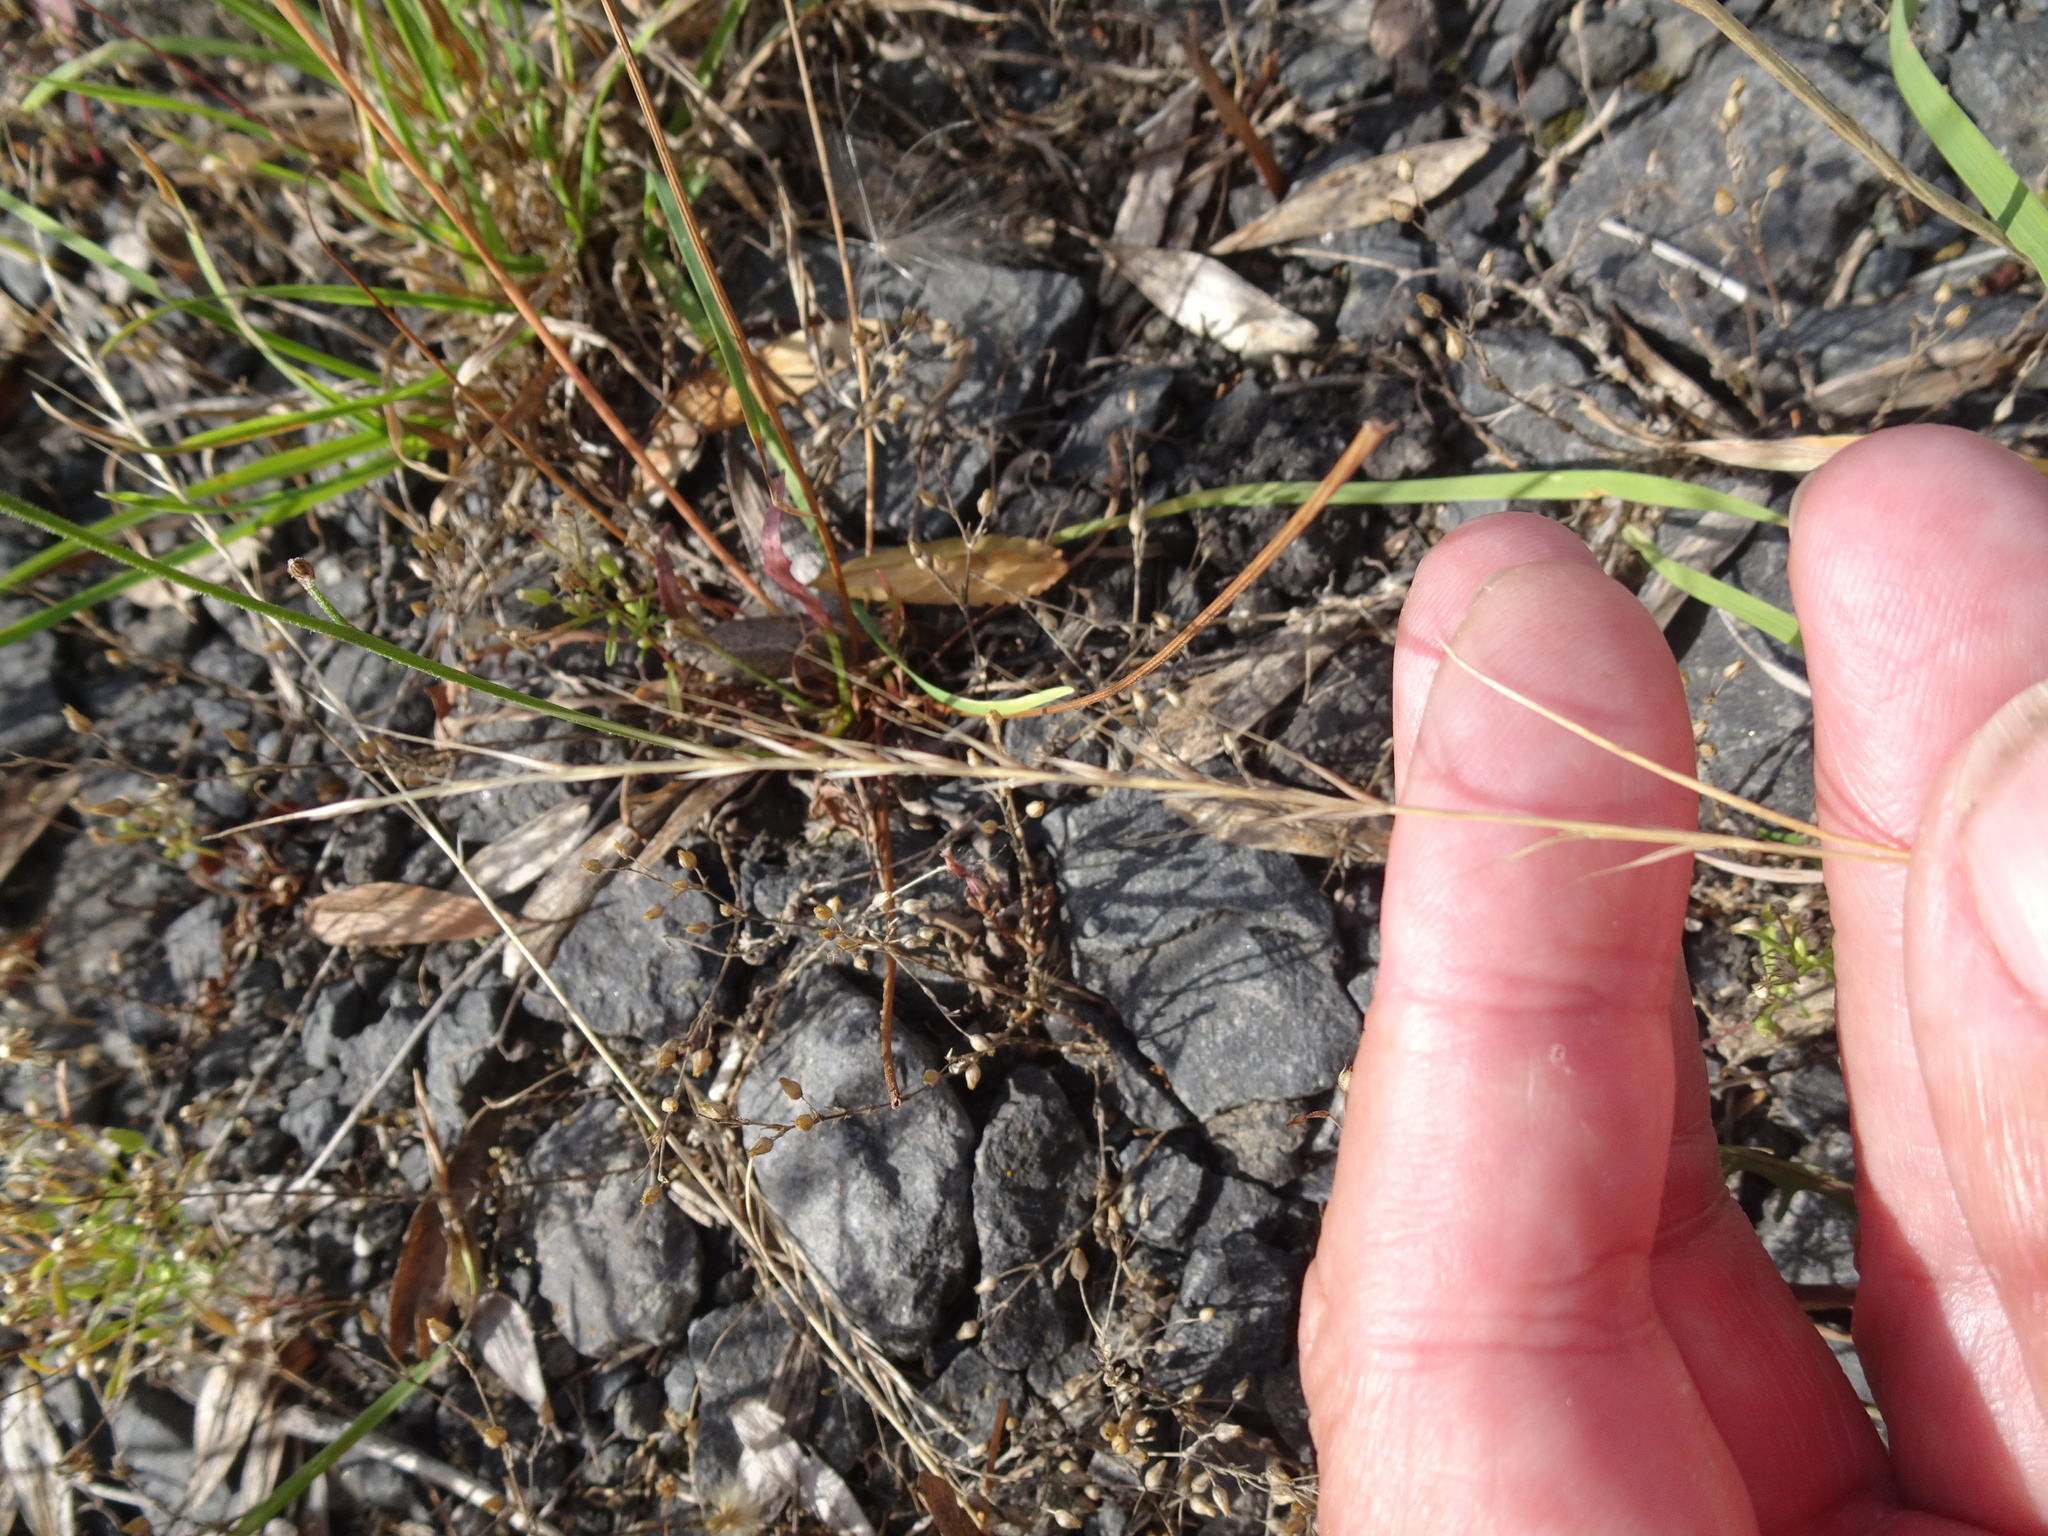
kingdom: Plantae
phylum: Tracheophyta
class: Liliopsida
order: Poales
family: Poaceae
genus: Festuca
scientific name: Festuca bromoides
